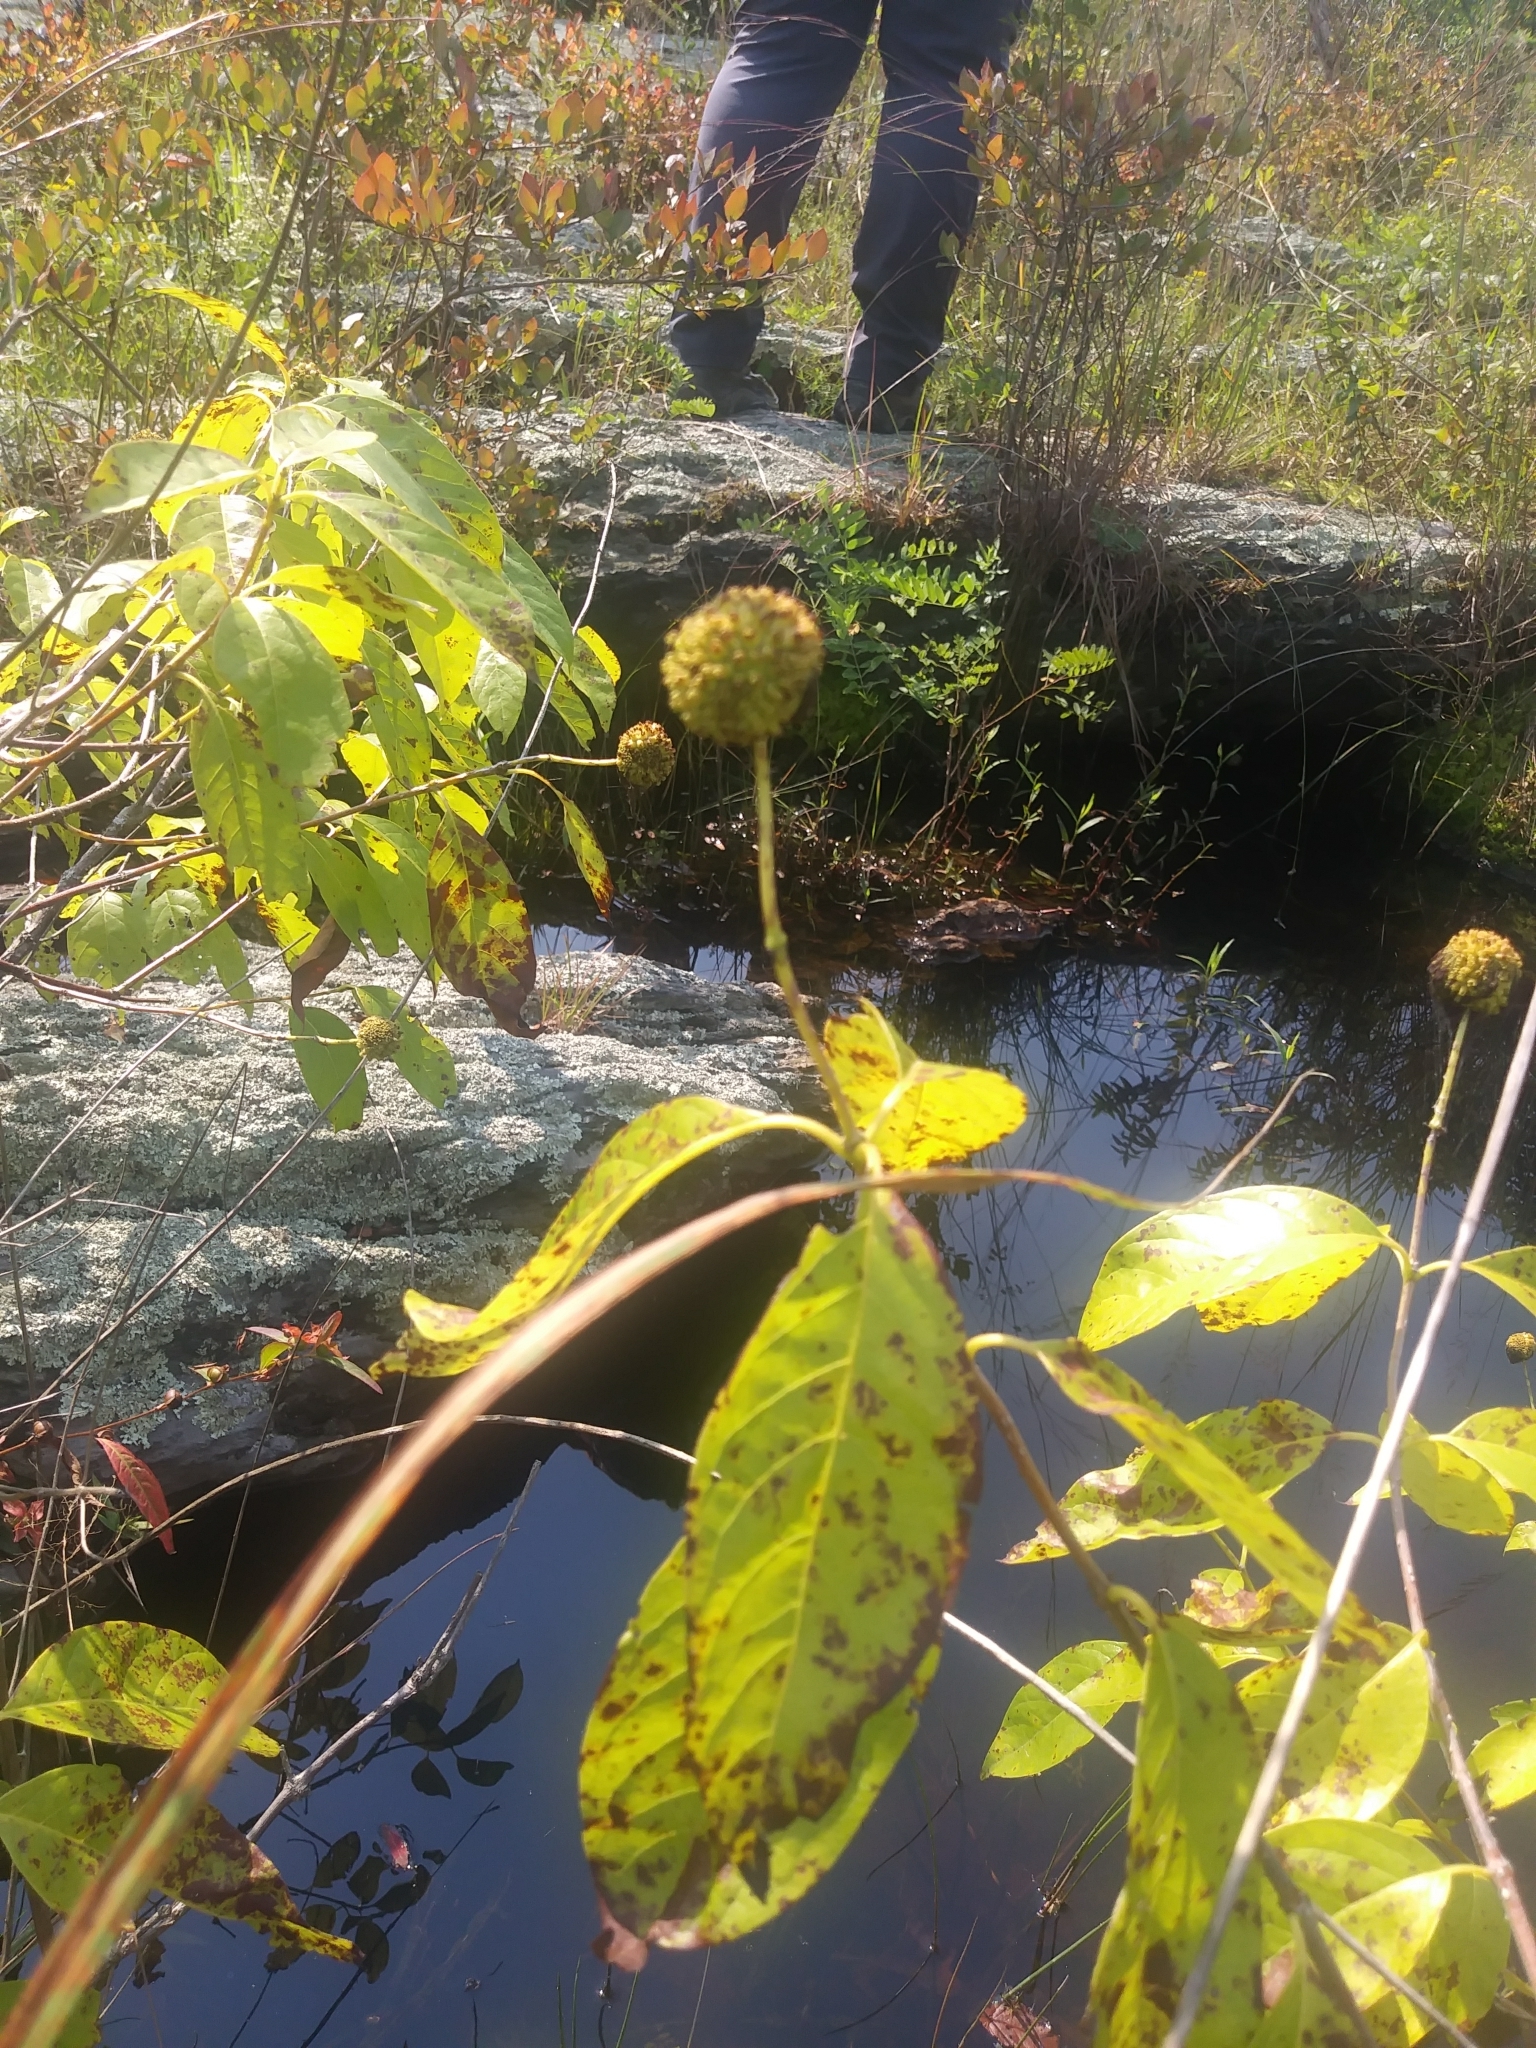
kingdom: Plantae
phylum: Tracheophyta
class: Magnoliopsida
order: Gentianales
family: Rubiaceae
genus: Cephalanthus
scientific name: Cephalanthus occidentalis
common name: Button-willow
